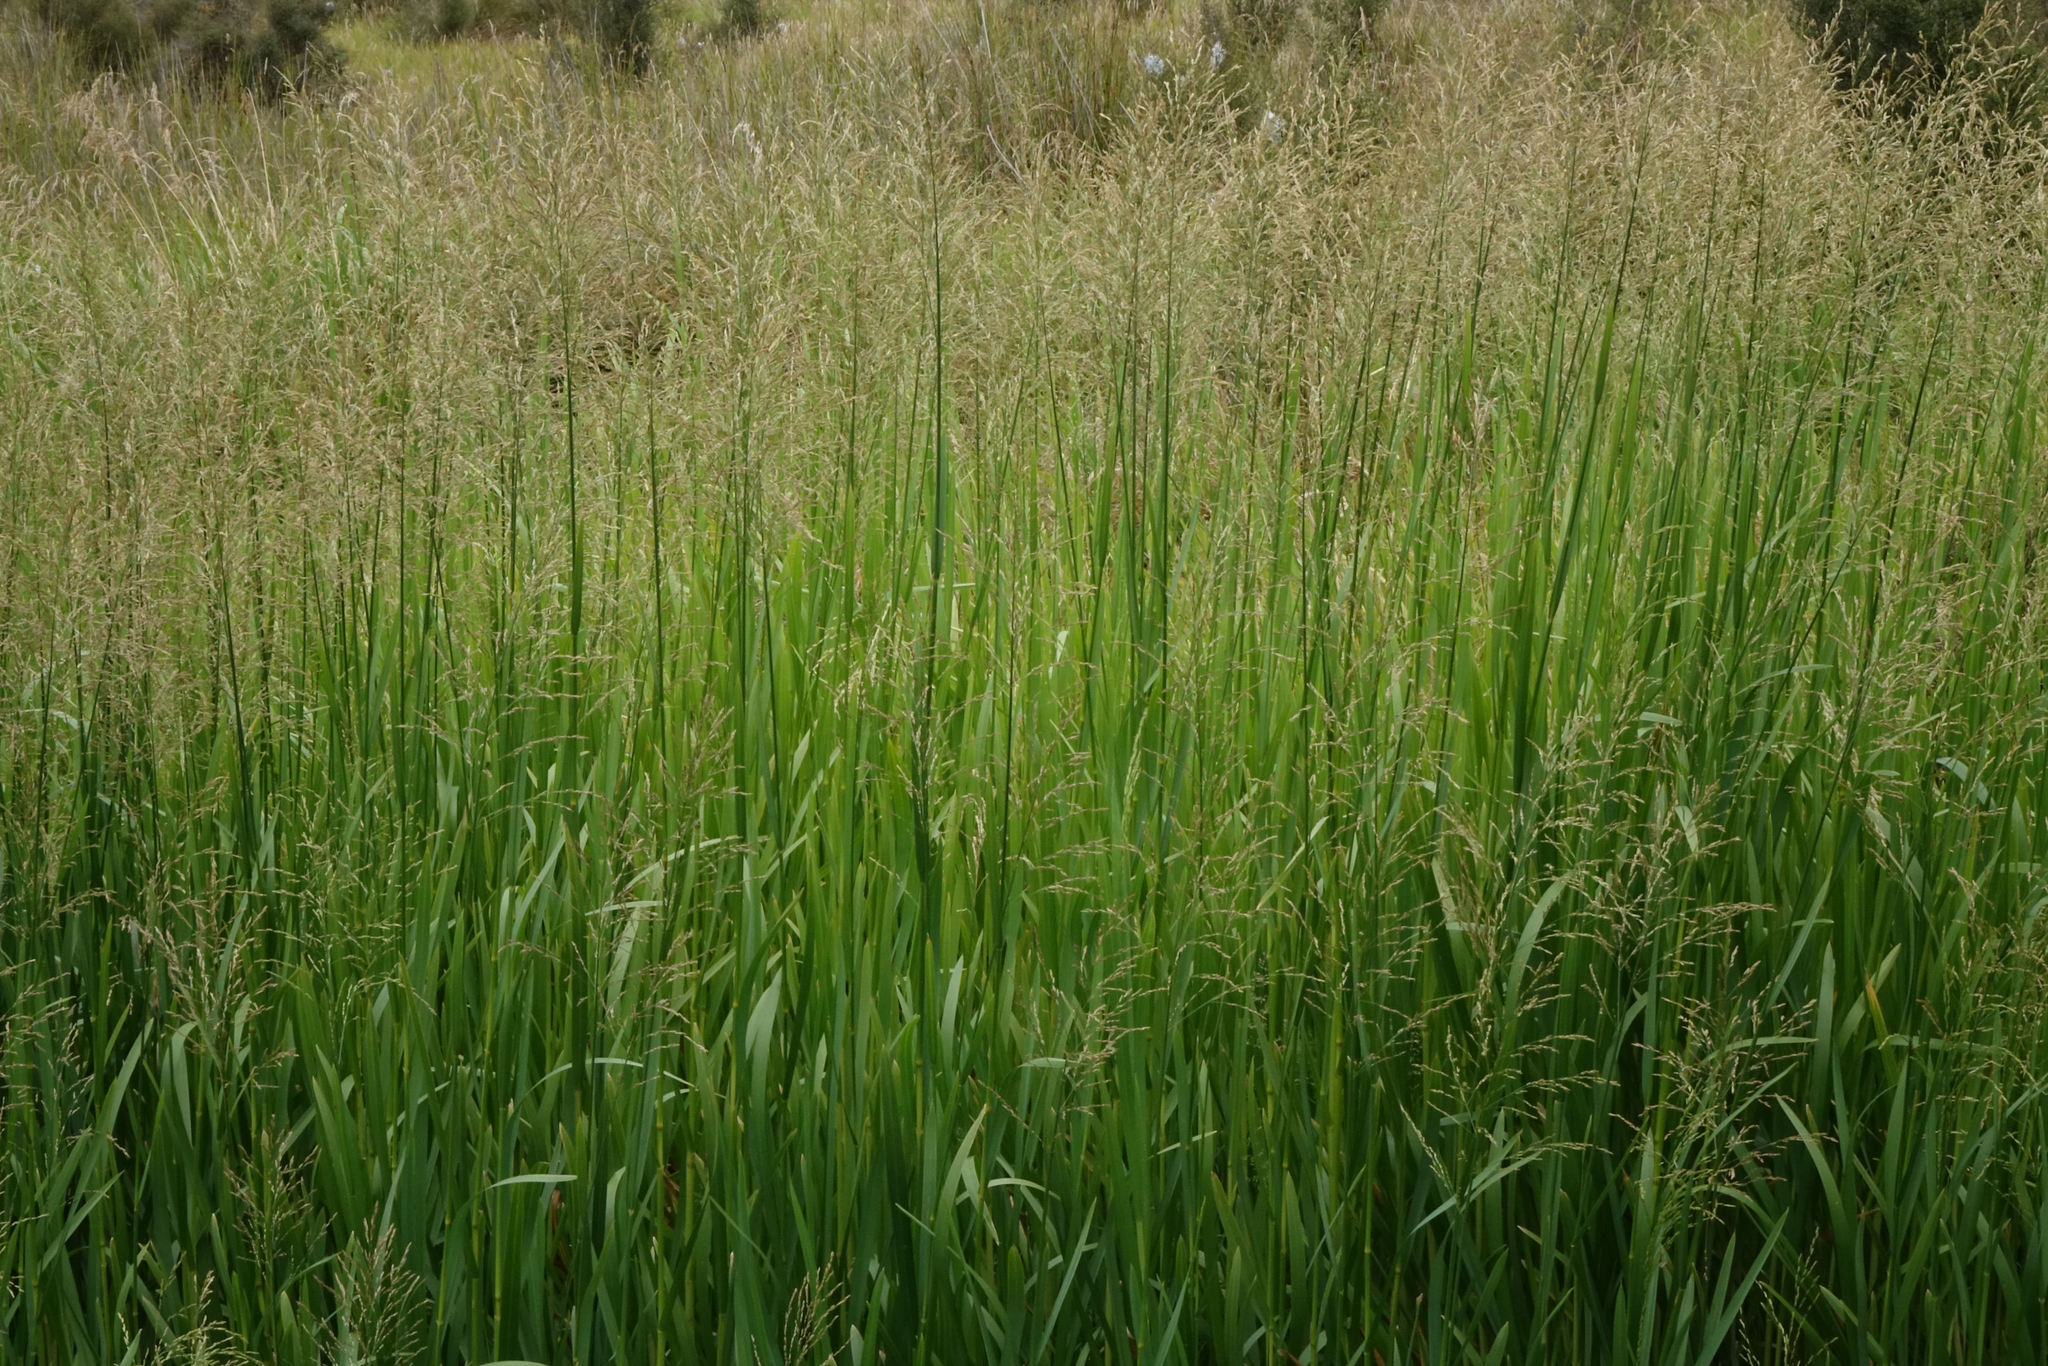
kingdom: Plantae
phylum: Tracheophyta
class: Liliopsida
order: Poales
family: Poaceae
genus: Glyceria
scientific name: Glyceria maxima
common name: Reed mannagrass
